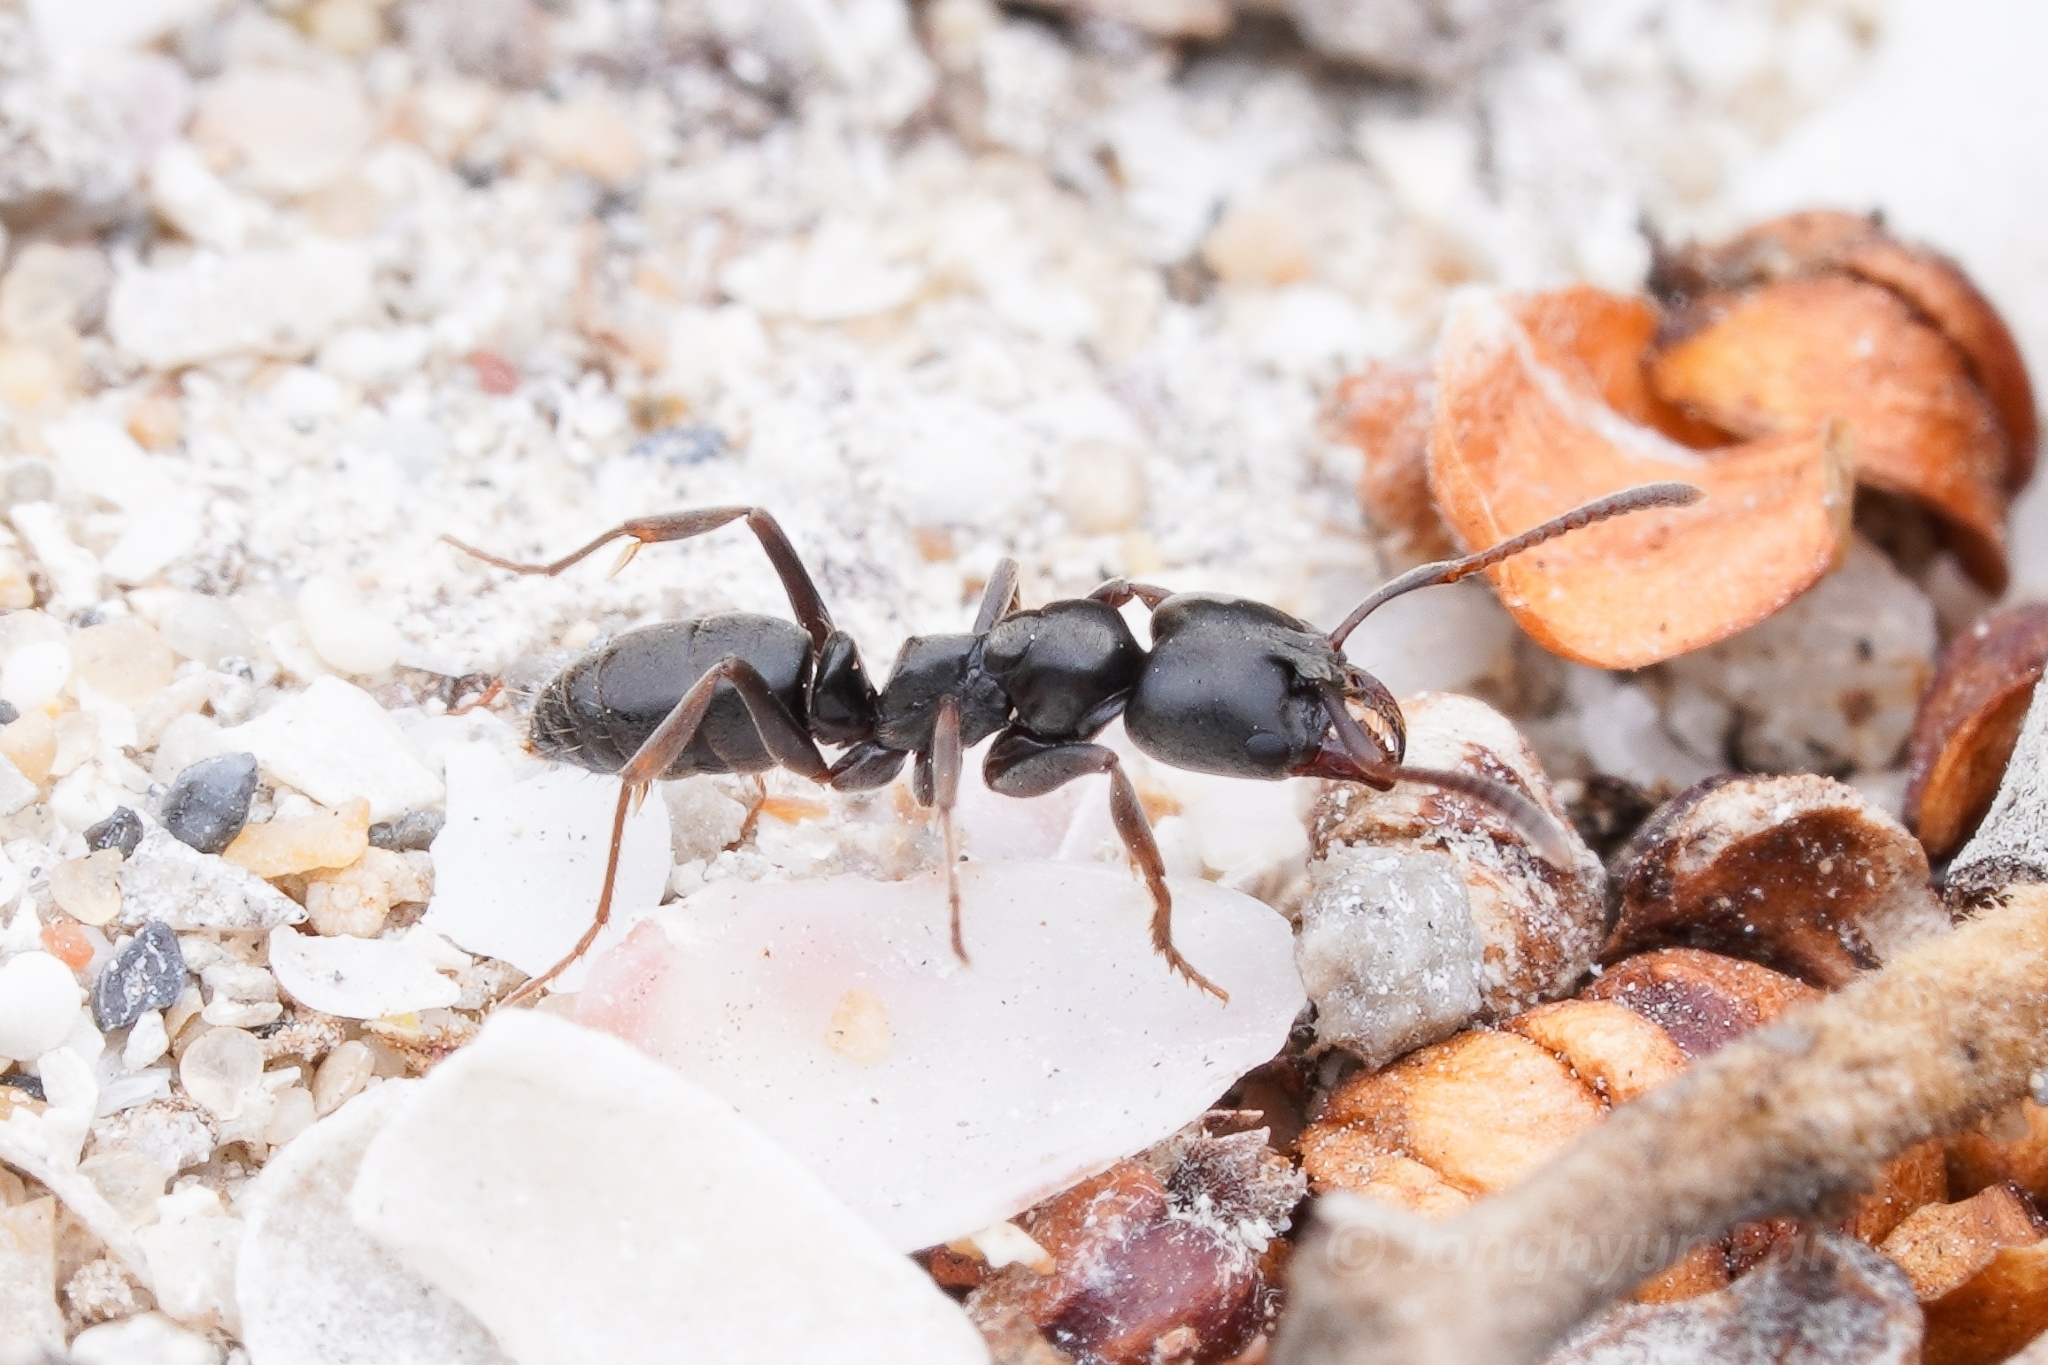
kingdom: Animalia
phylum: Arthropoda
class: Insecta
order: Hymenoptera
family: Formicidae
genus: Pachycondyla
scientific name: Pachycondyla sennaarensis
